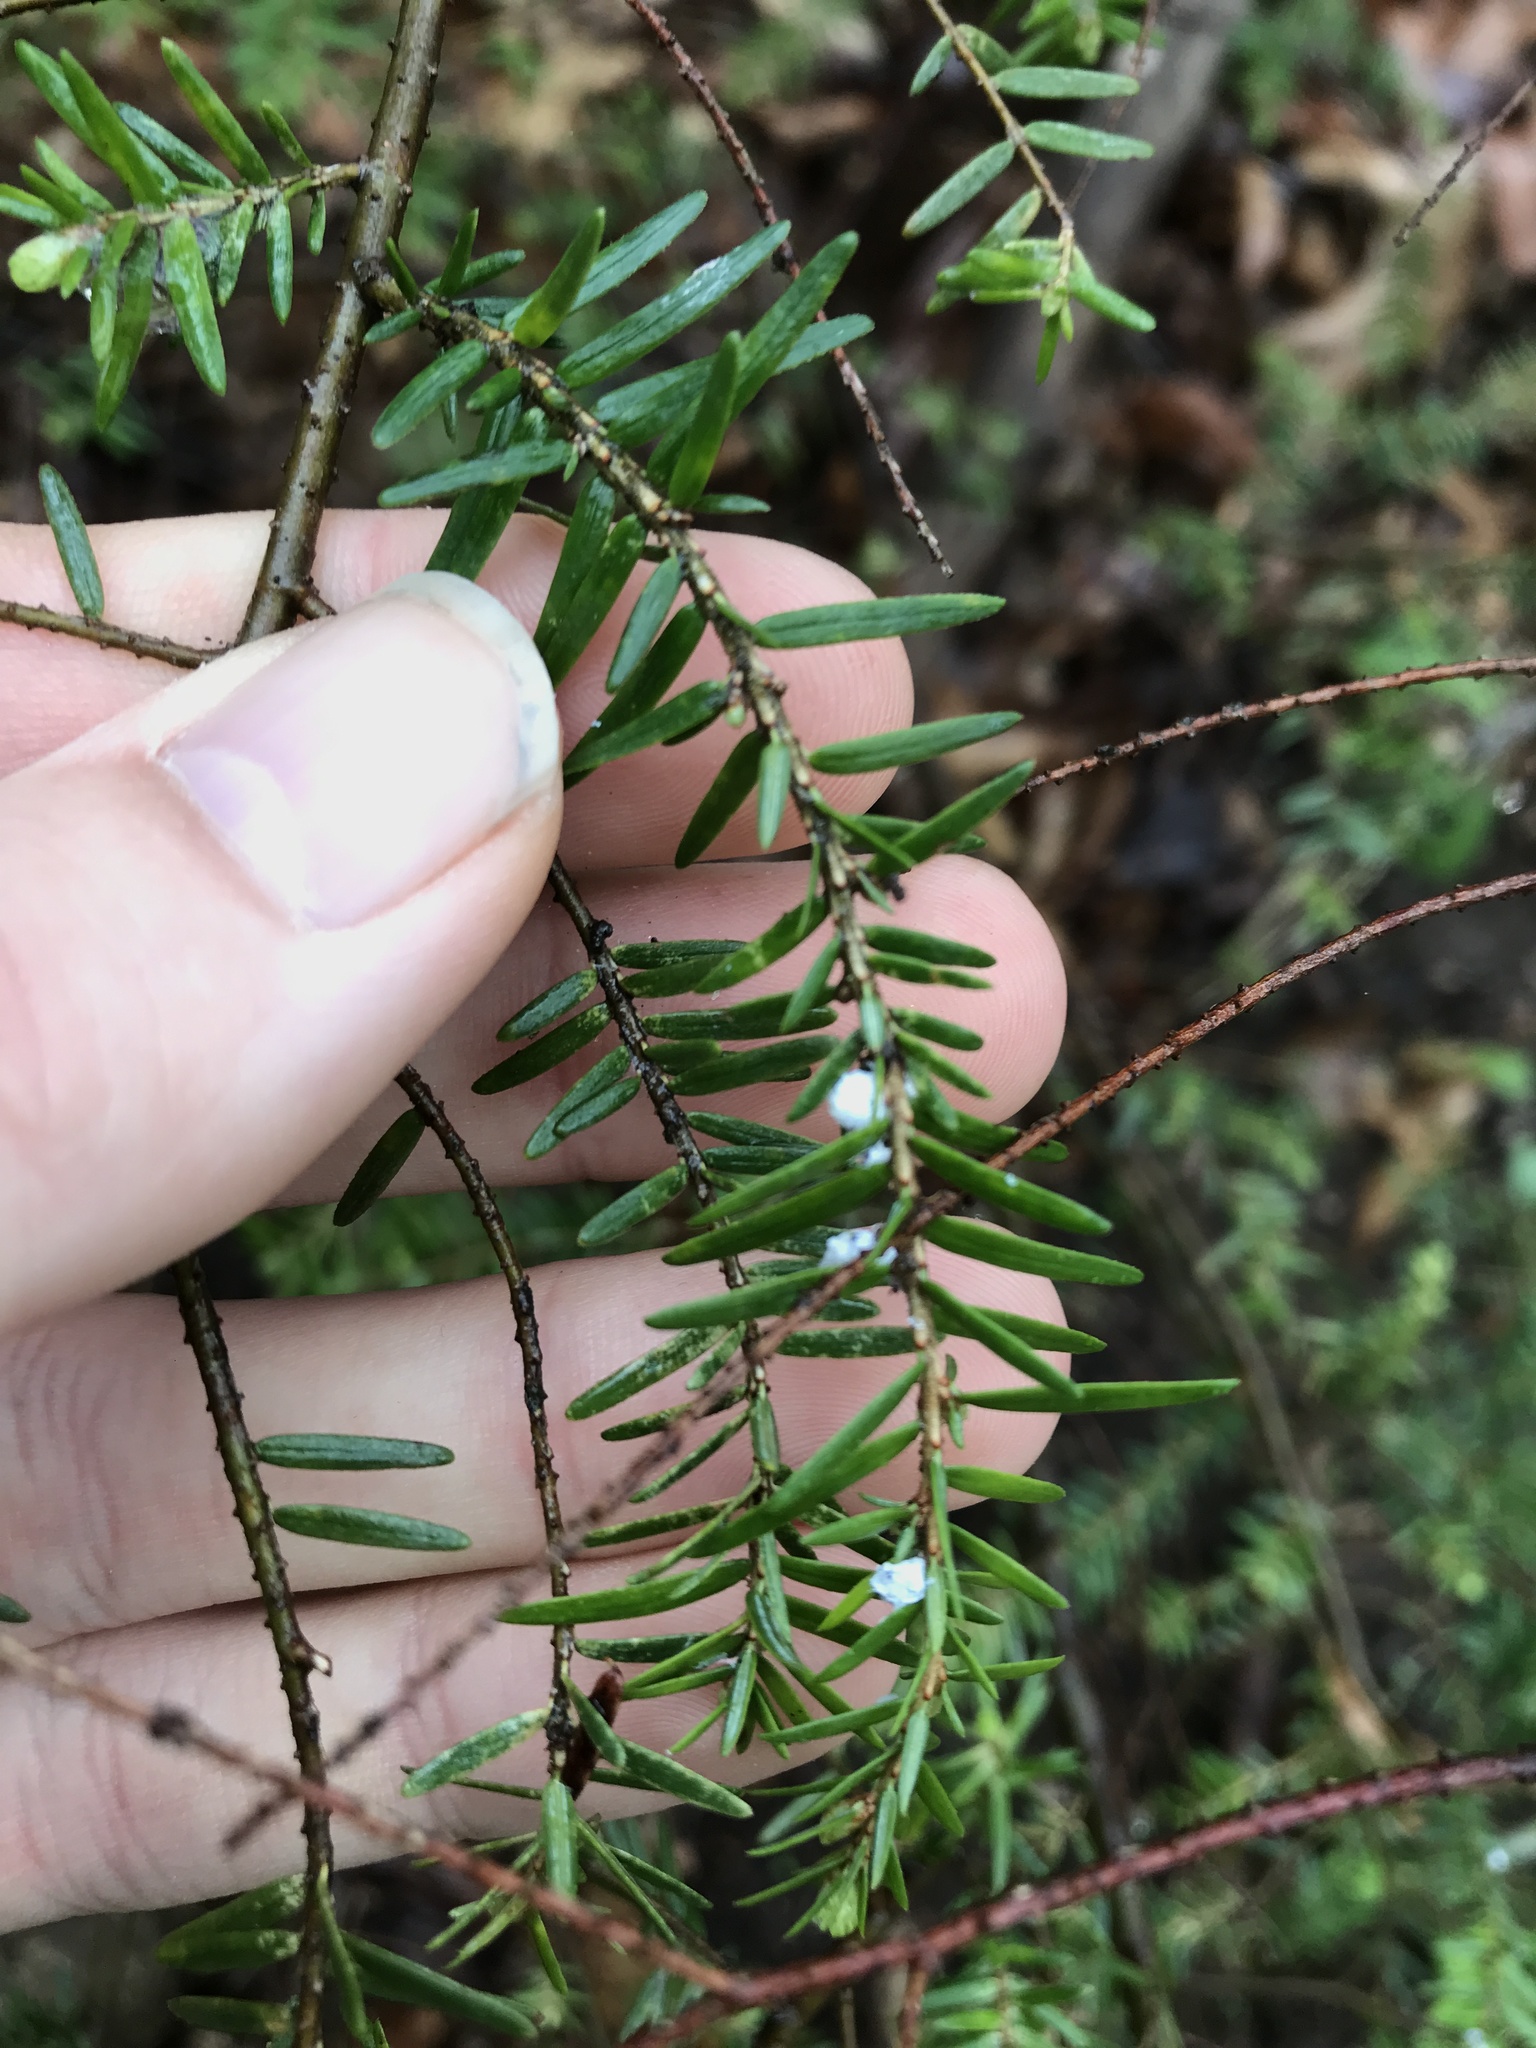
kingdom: Animalia
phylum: Arthropoda
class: Insecta
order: Hemiptera
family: Adelgidae
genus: Adelges
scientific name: Adelges tsugae
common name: Hemlock woolly adelgid
